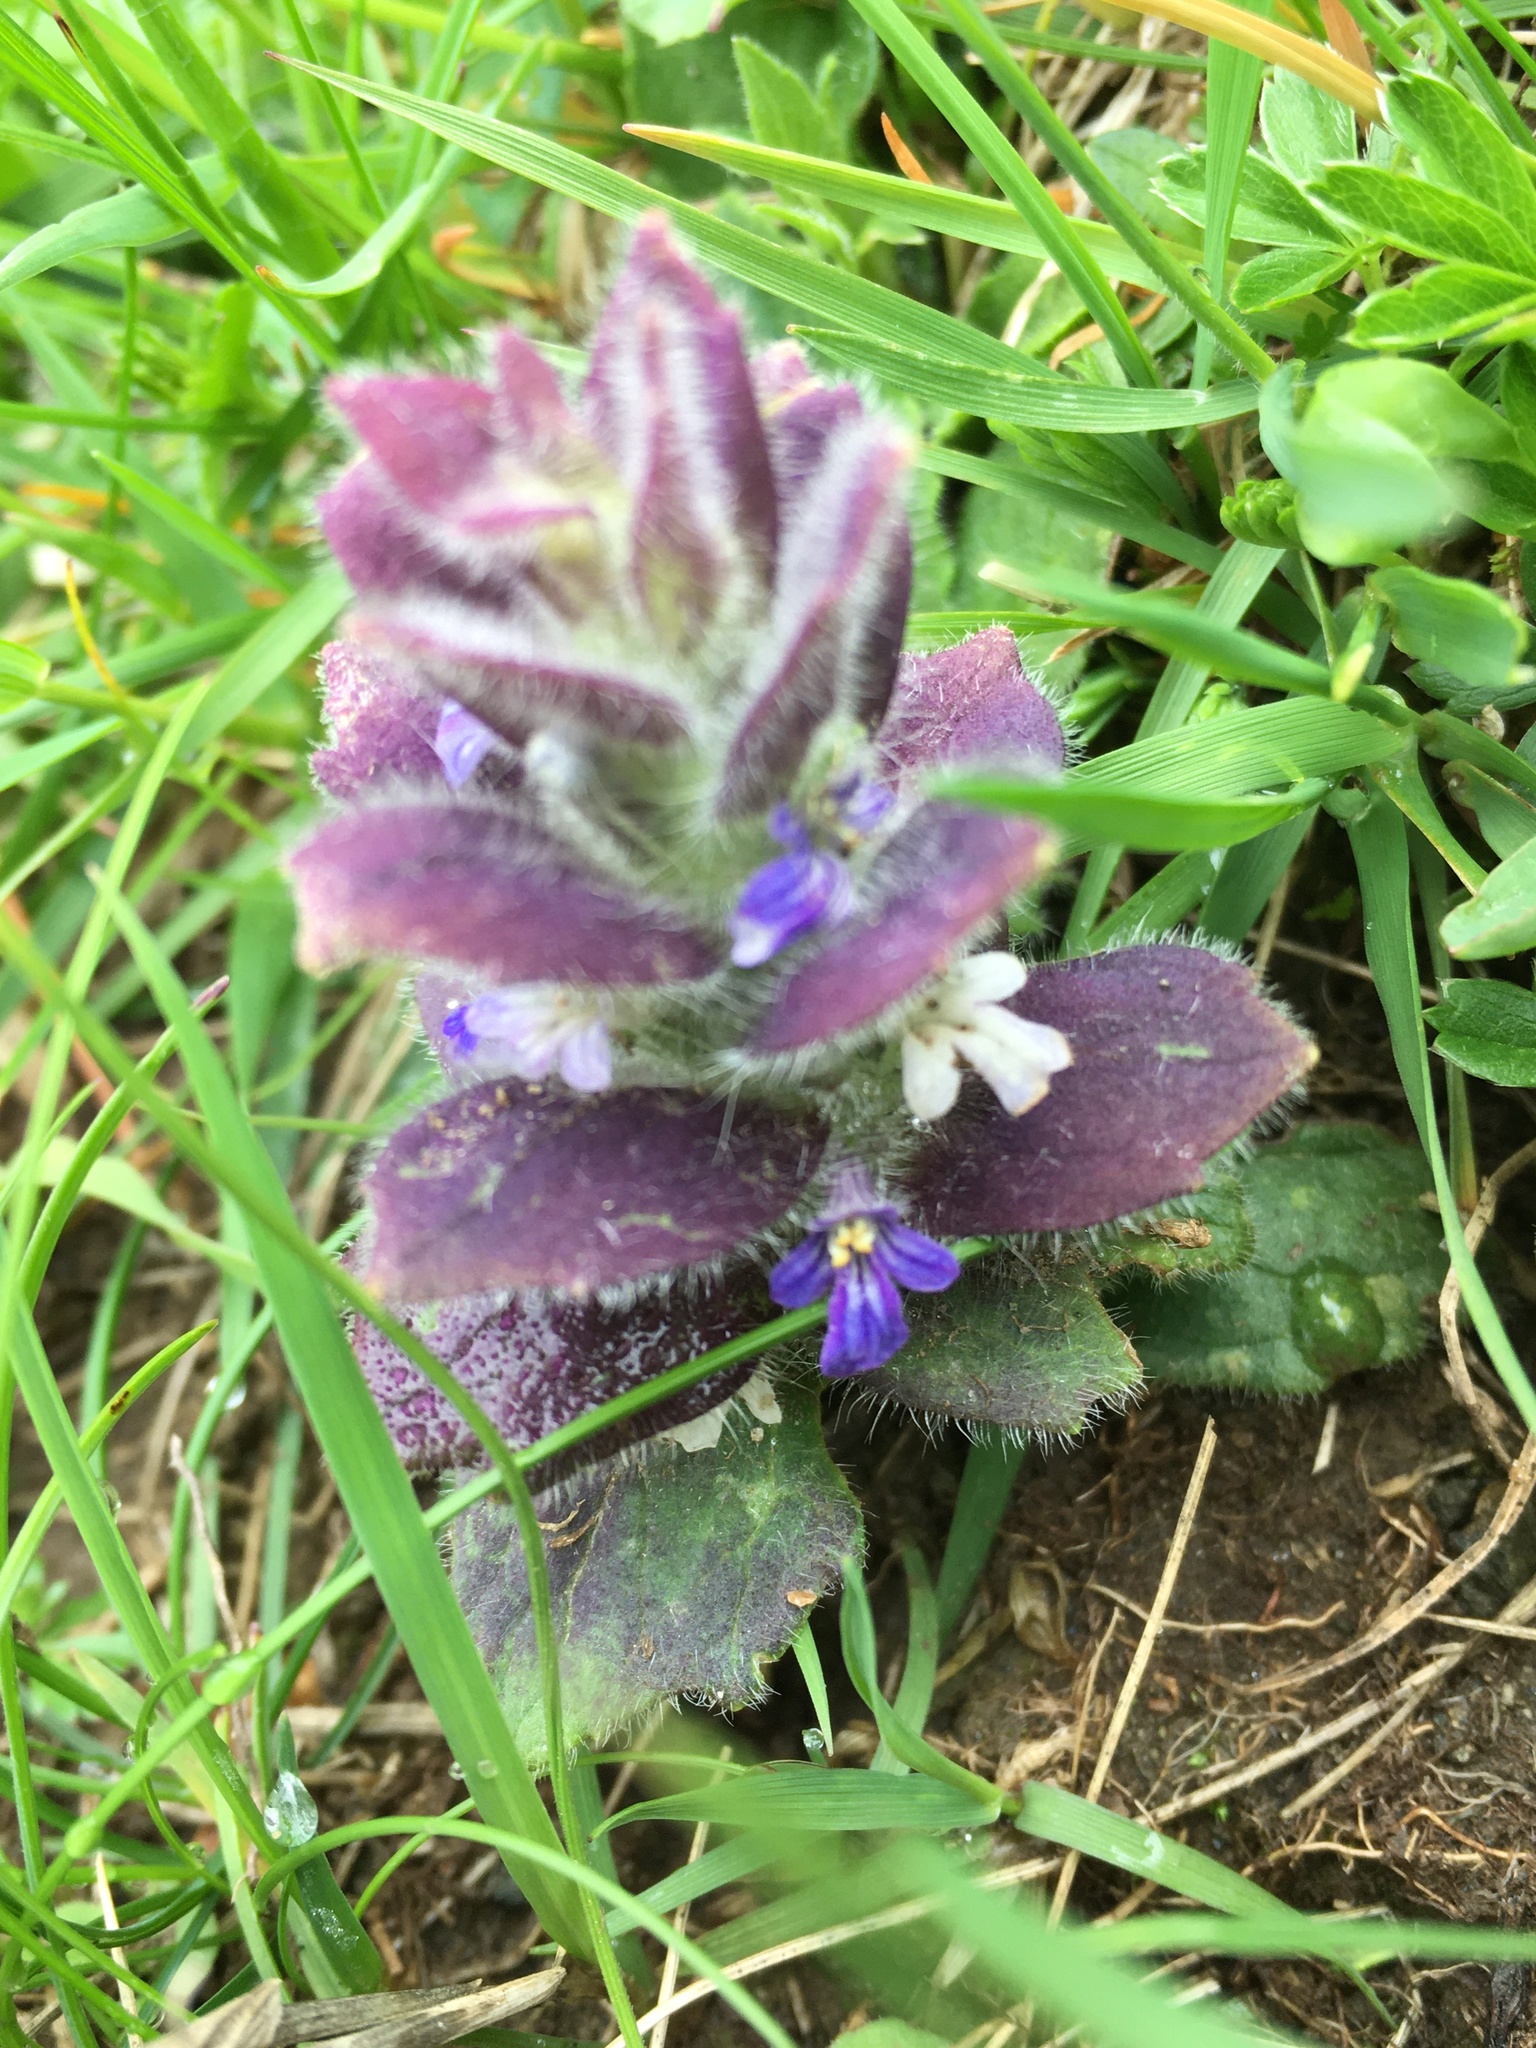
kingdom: Plantae
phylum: Tracheophyta
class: Magnoliopsida
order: Lamiales
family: Lamiaceae
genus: Ajuga
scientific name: Ajuga pyramidalis
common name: Pyramid bugle
